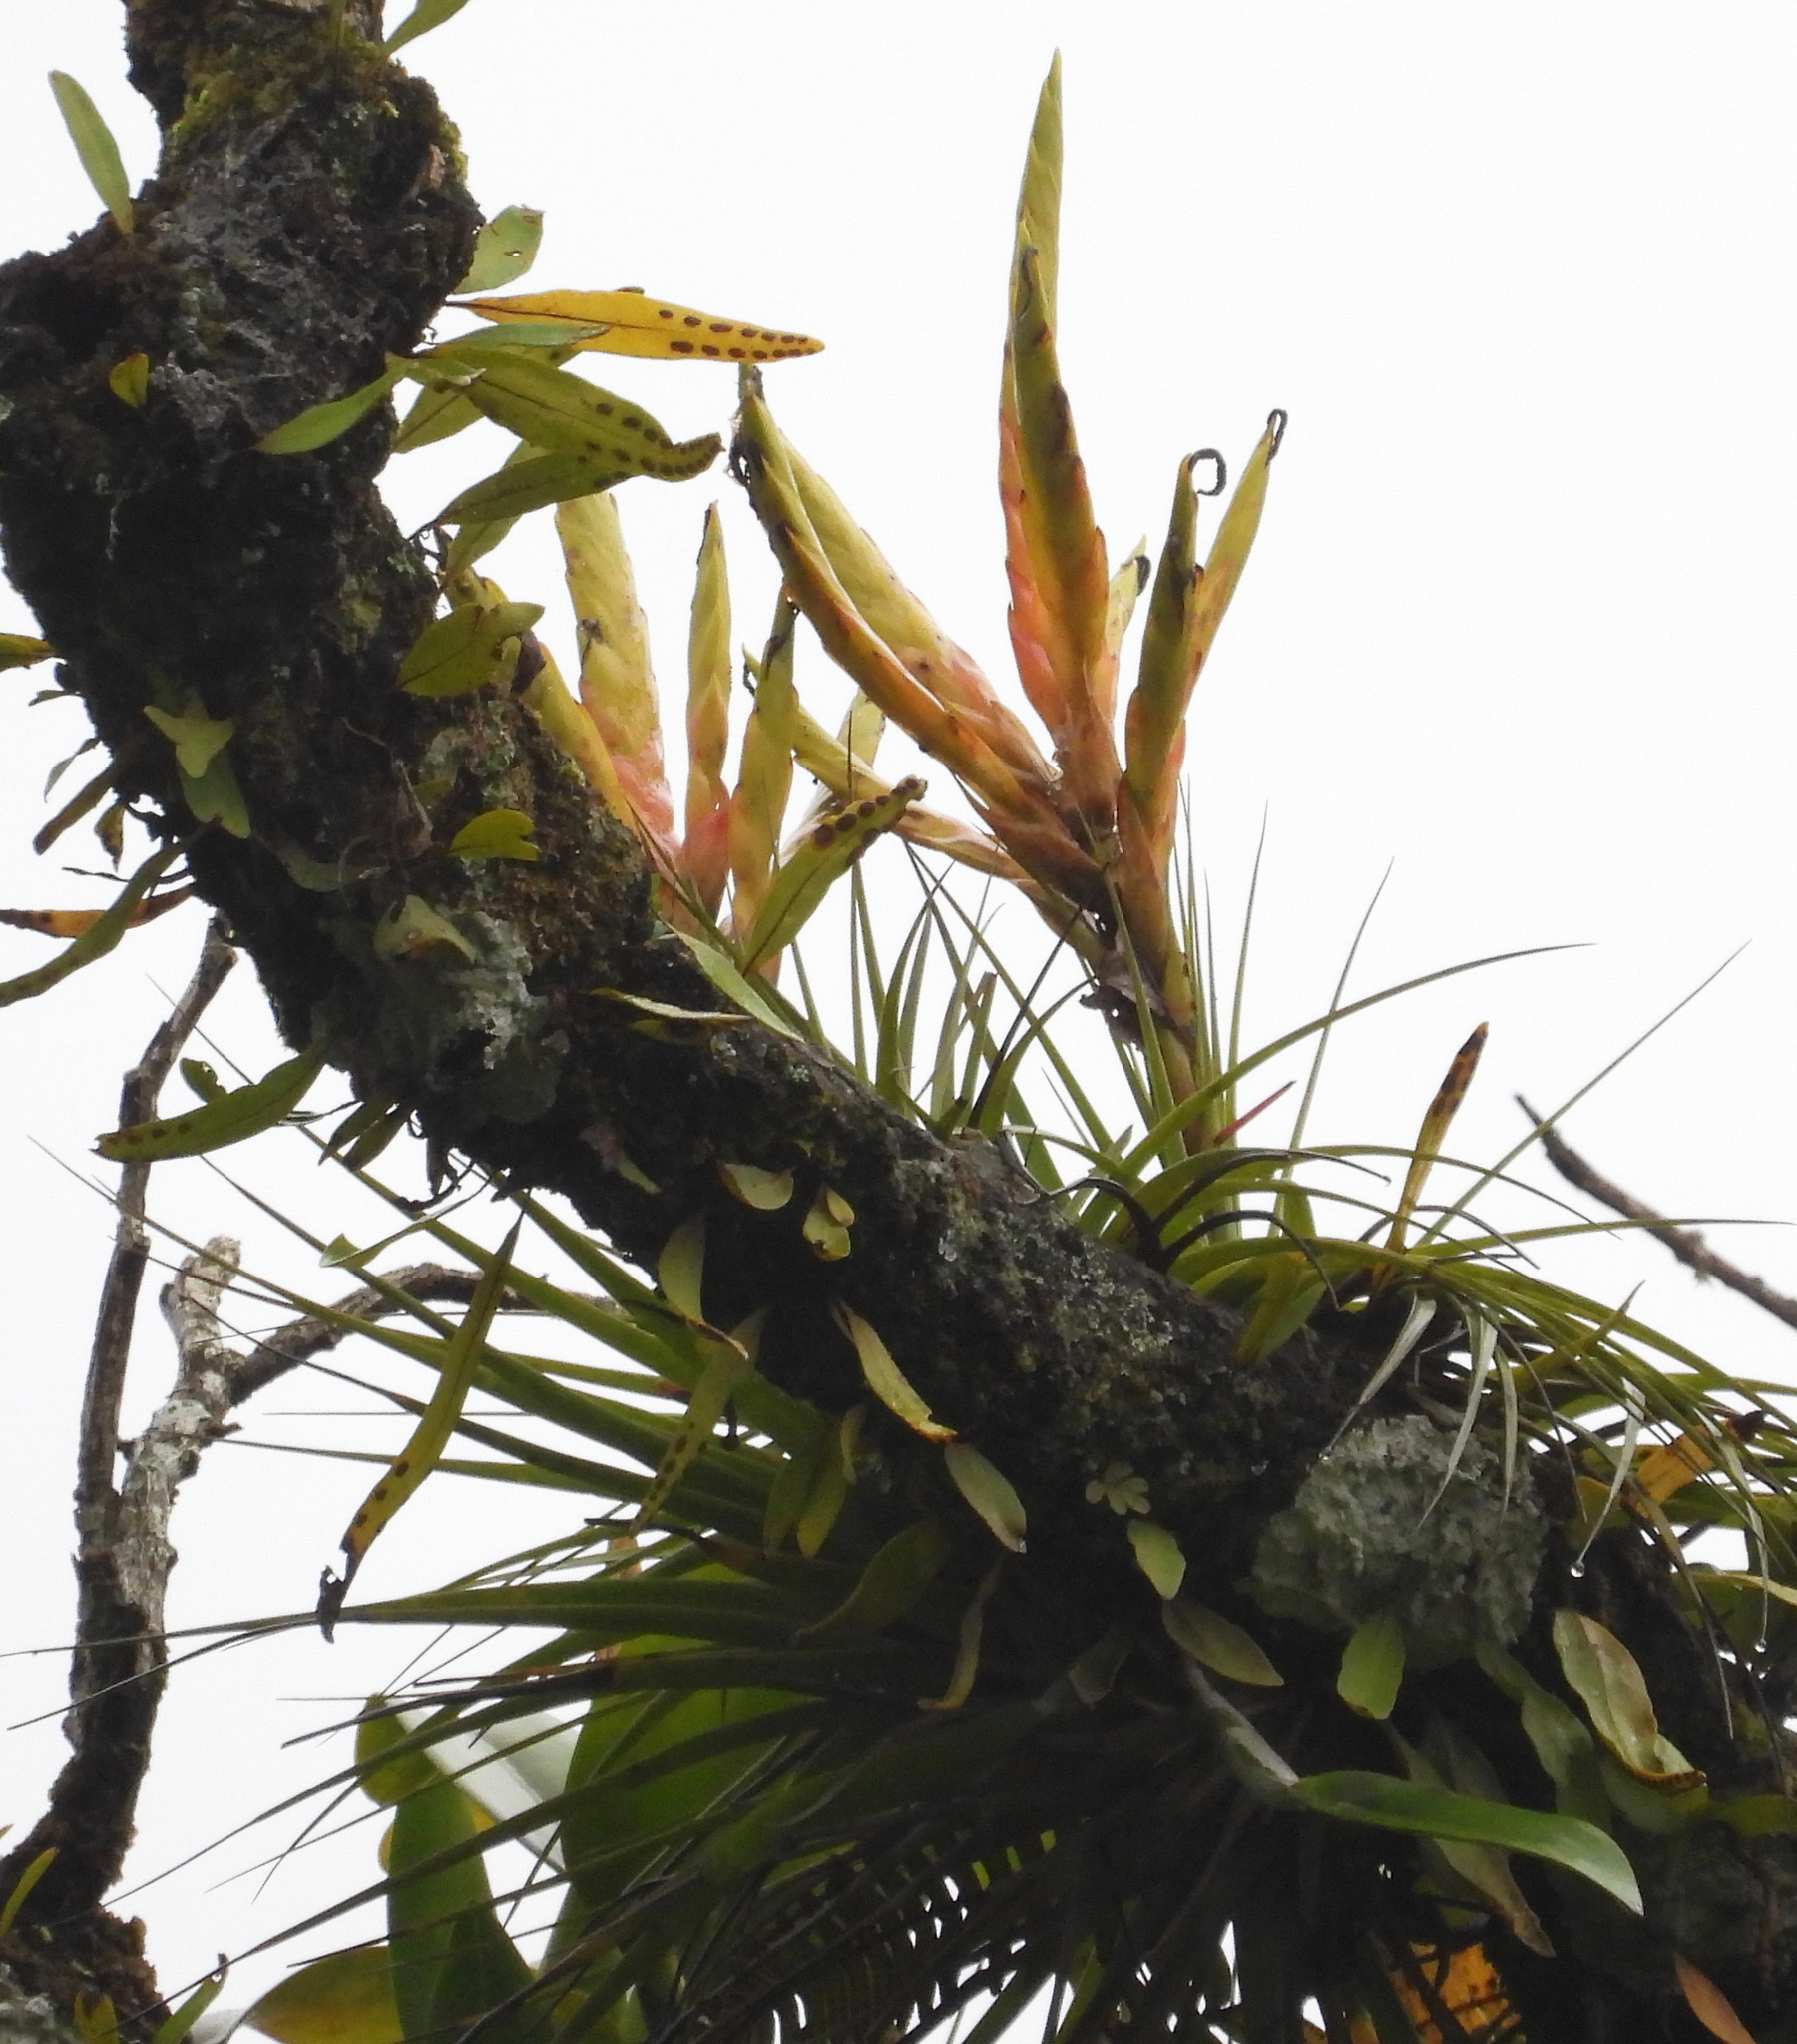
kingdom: Plantae
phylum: Tracheophyta
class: Liliopsida
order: Poales
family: Bromeliaceae
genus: Tillandsia
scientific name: Tillandsia fasciculata
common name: Giant airplant
